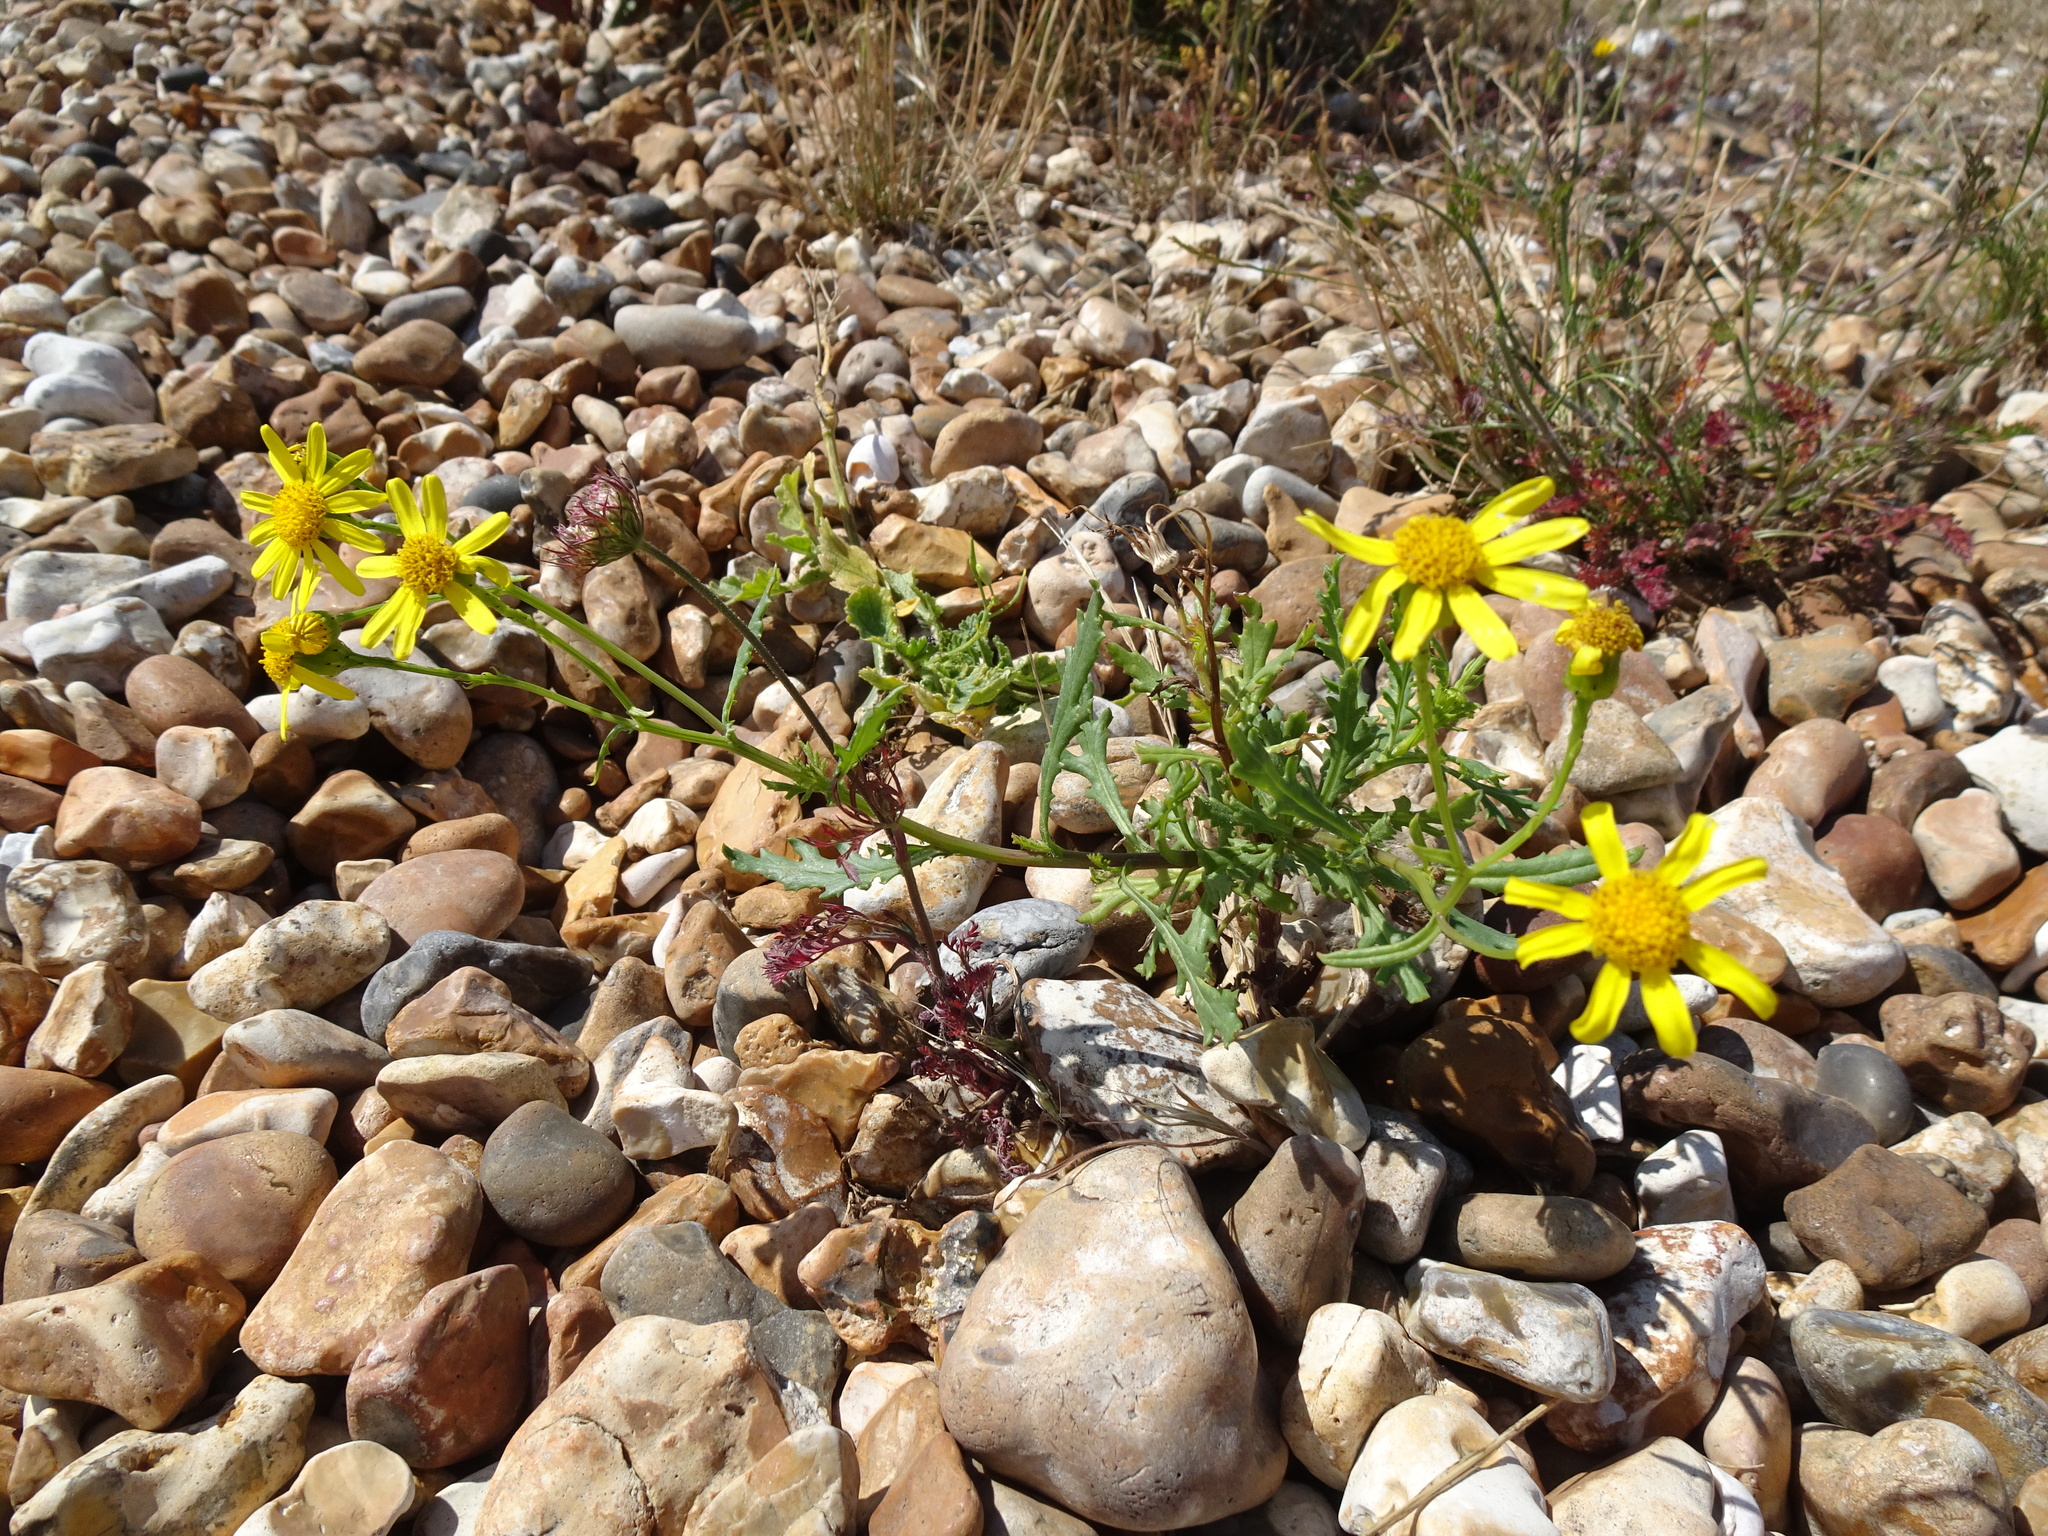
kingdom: Plantae
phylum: Tracheophyta
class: Magnoliopsida
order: Asterales
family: Asteraceae
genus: Senecio
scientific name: Senecio squalidus
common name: Oxford ragwort
